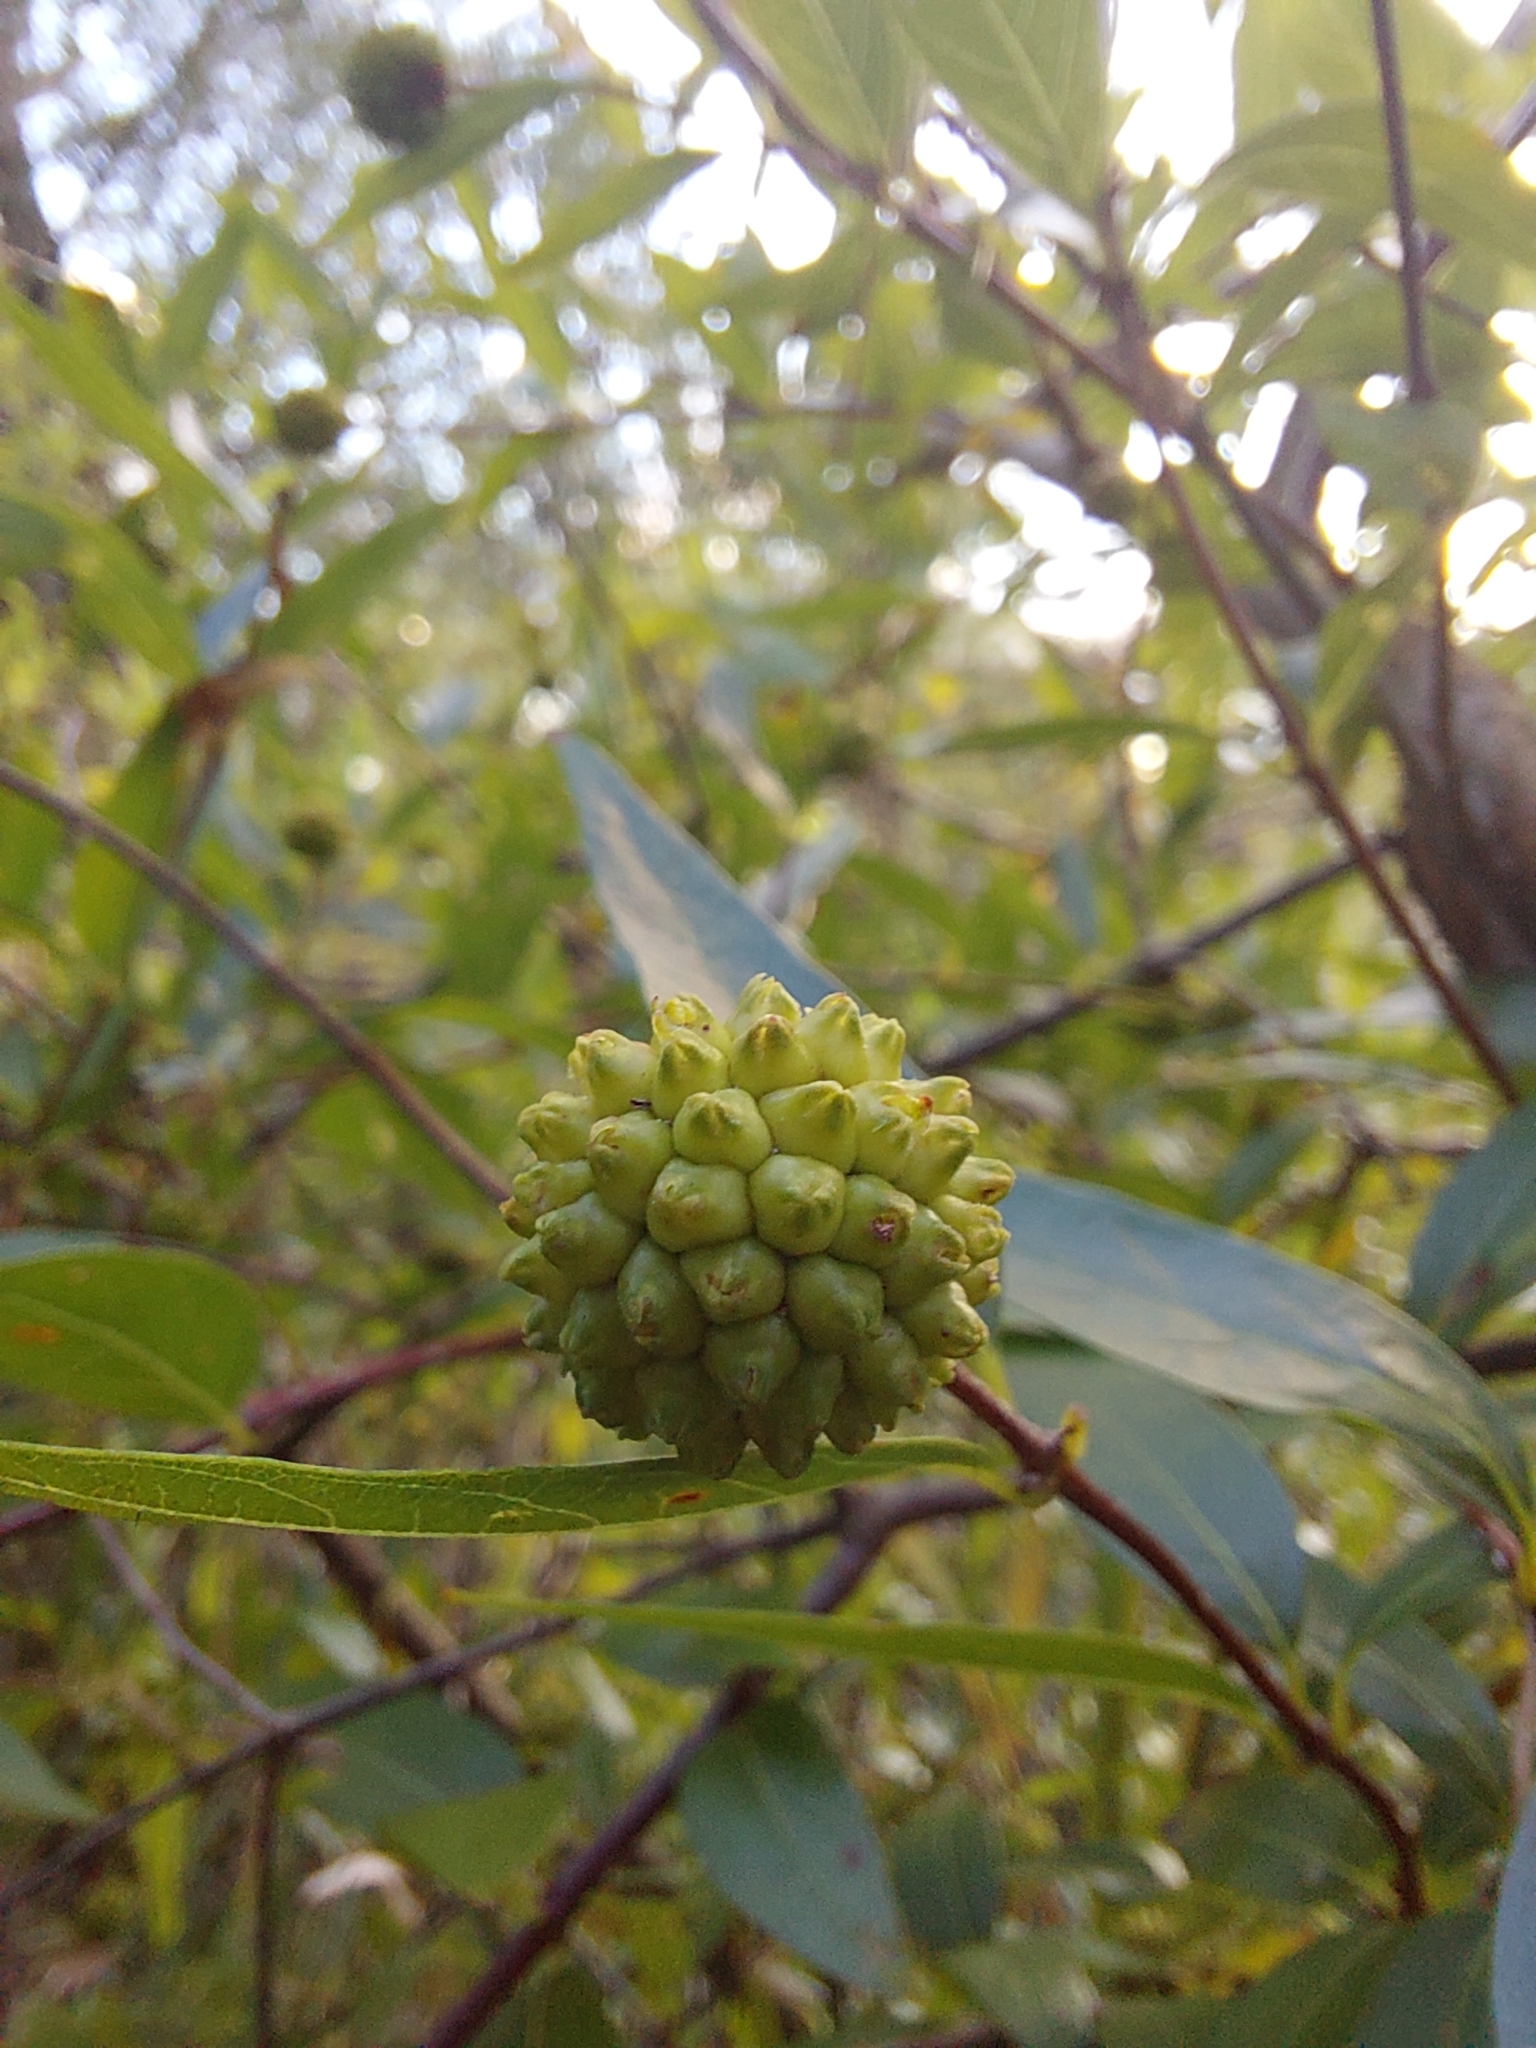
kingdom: Plantae
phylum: Tracheophyta
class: Magnoliopsida
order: Gentianales
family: Rubiaceae
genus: Cephalanthus
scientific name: Cephalanthus glabratus
